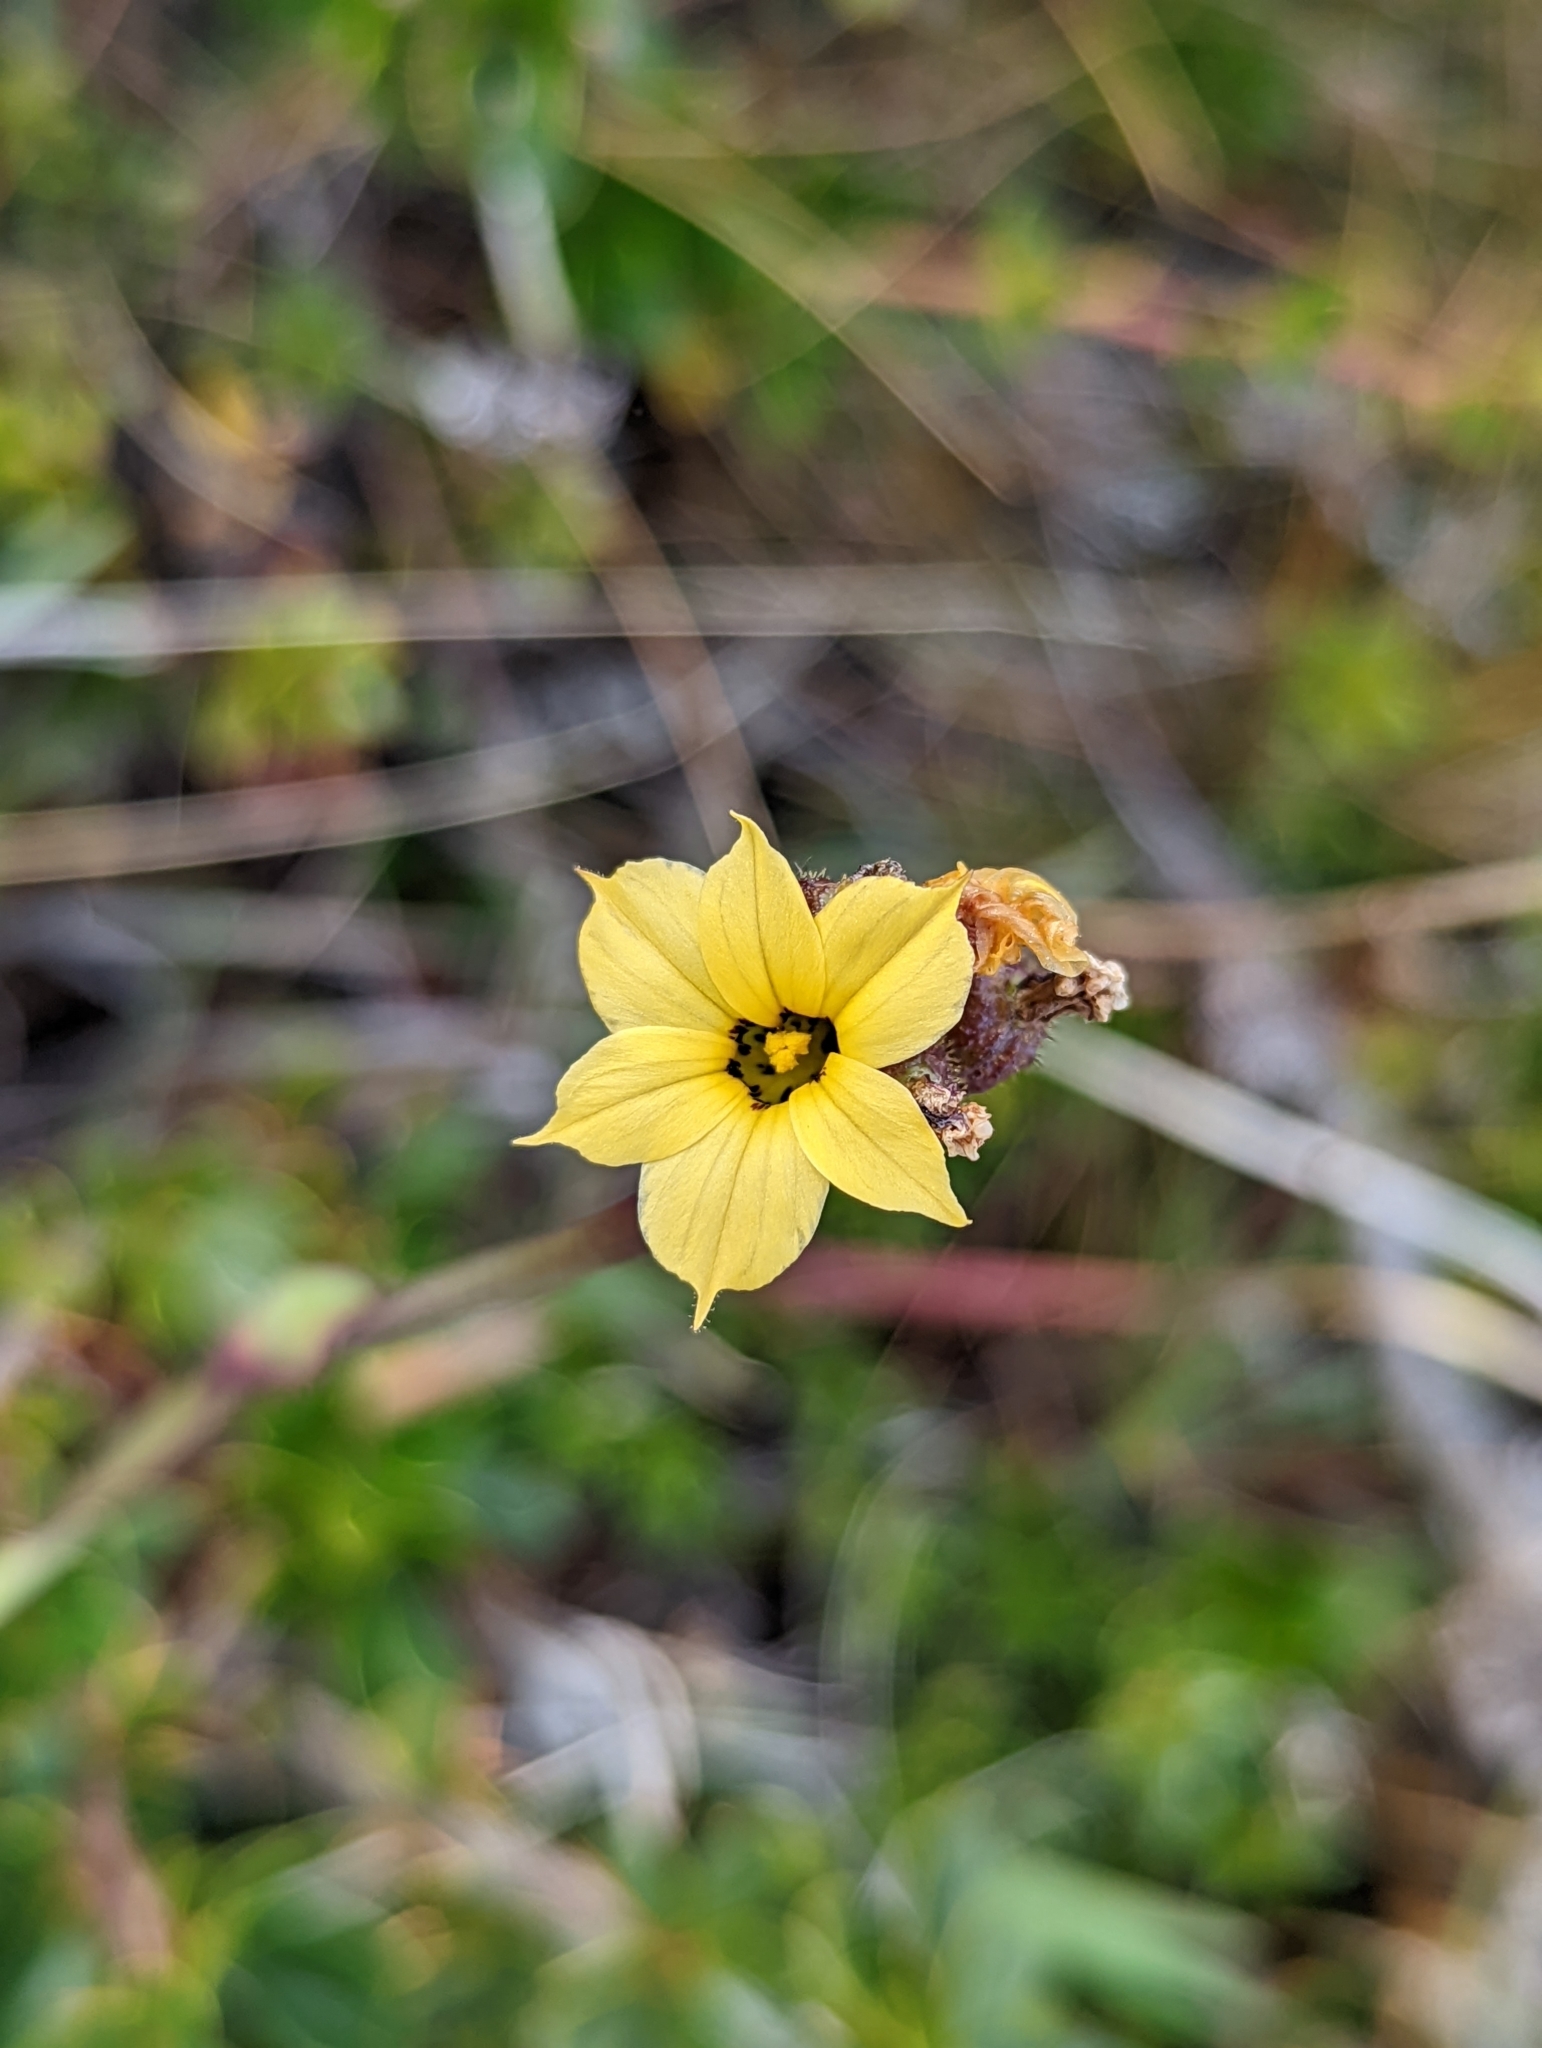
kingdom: Plantae
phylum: Tracheophyta
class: Liliopsida
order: Asparagales
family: Iridaceae
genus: Sisyrinchium
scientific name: Sisyrinchium arenarium
